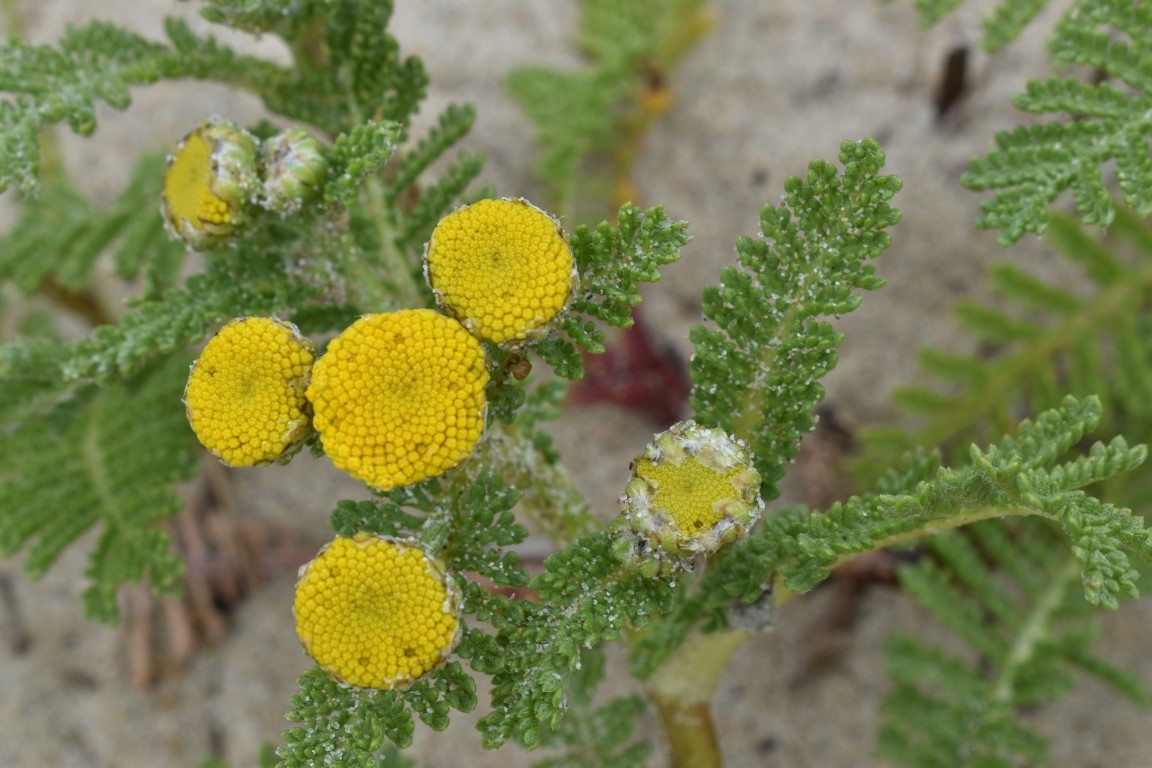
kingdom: Plantae
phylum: Tracheophyta
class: Magnoliopsida
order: Asterales
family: Asteraceae
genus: Tanacetum
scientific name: Tanacetum bipinnatum
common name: Dwarf tansy
